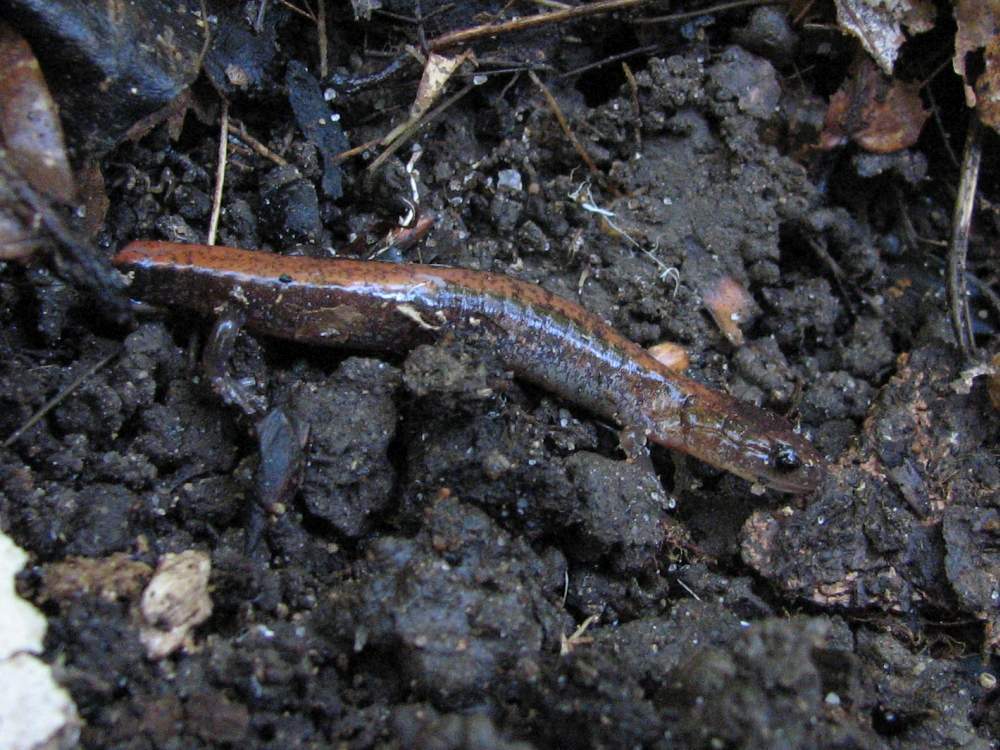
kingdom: Animalia
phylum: Chordata
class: Amphibia
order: Caudata
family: Plethodontidae
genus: Plethodon
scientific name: Plethodon cinereus
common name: Redback salamander
